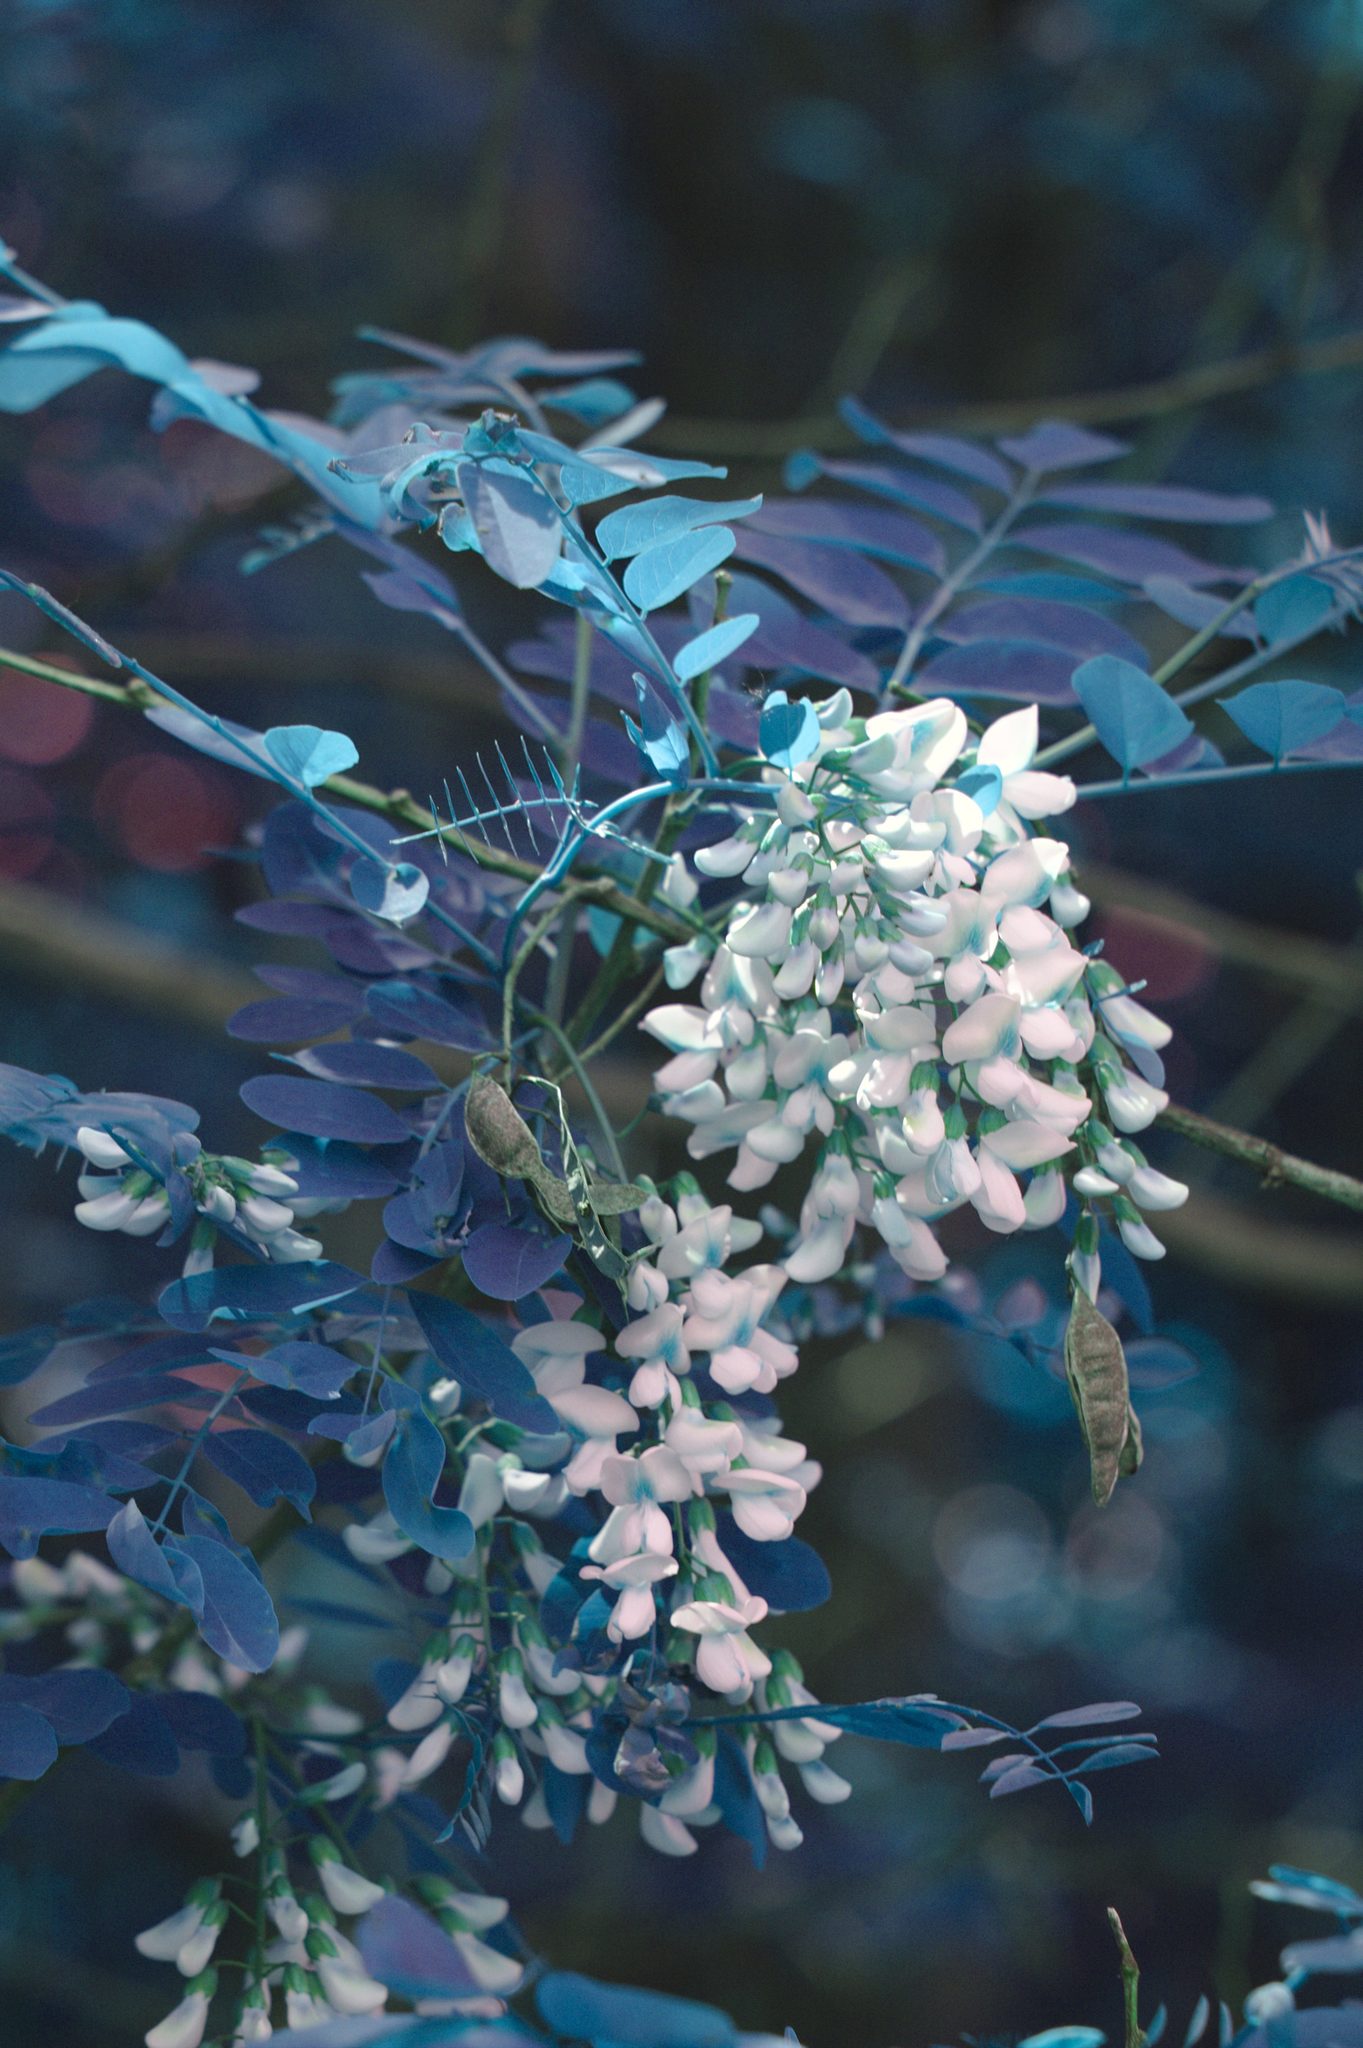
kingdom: Plantae
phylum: Tracheophyta
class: Magnoliopsida
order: Fabales
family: Fabaceae
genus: Robinia
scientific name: Robinia pseudoacacia
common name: Black locust
